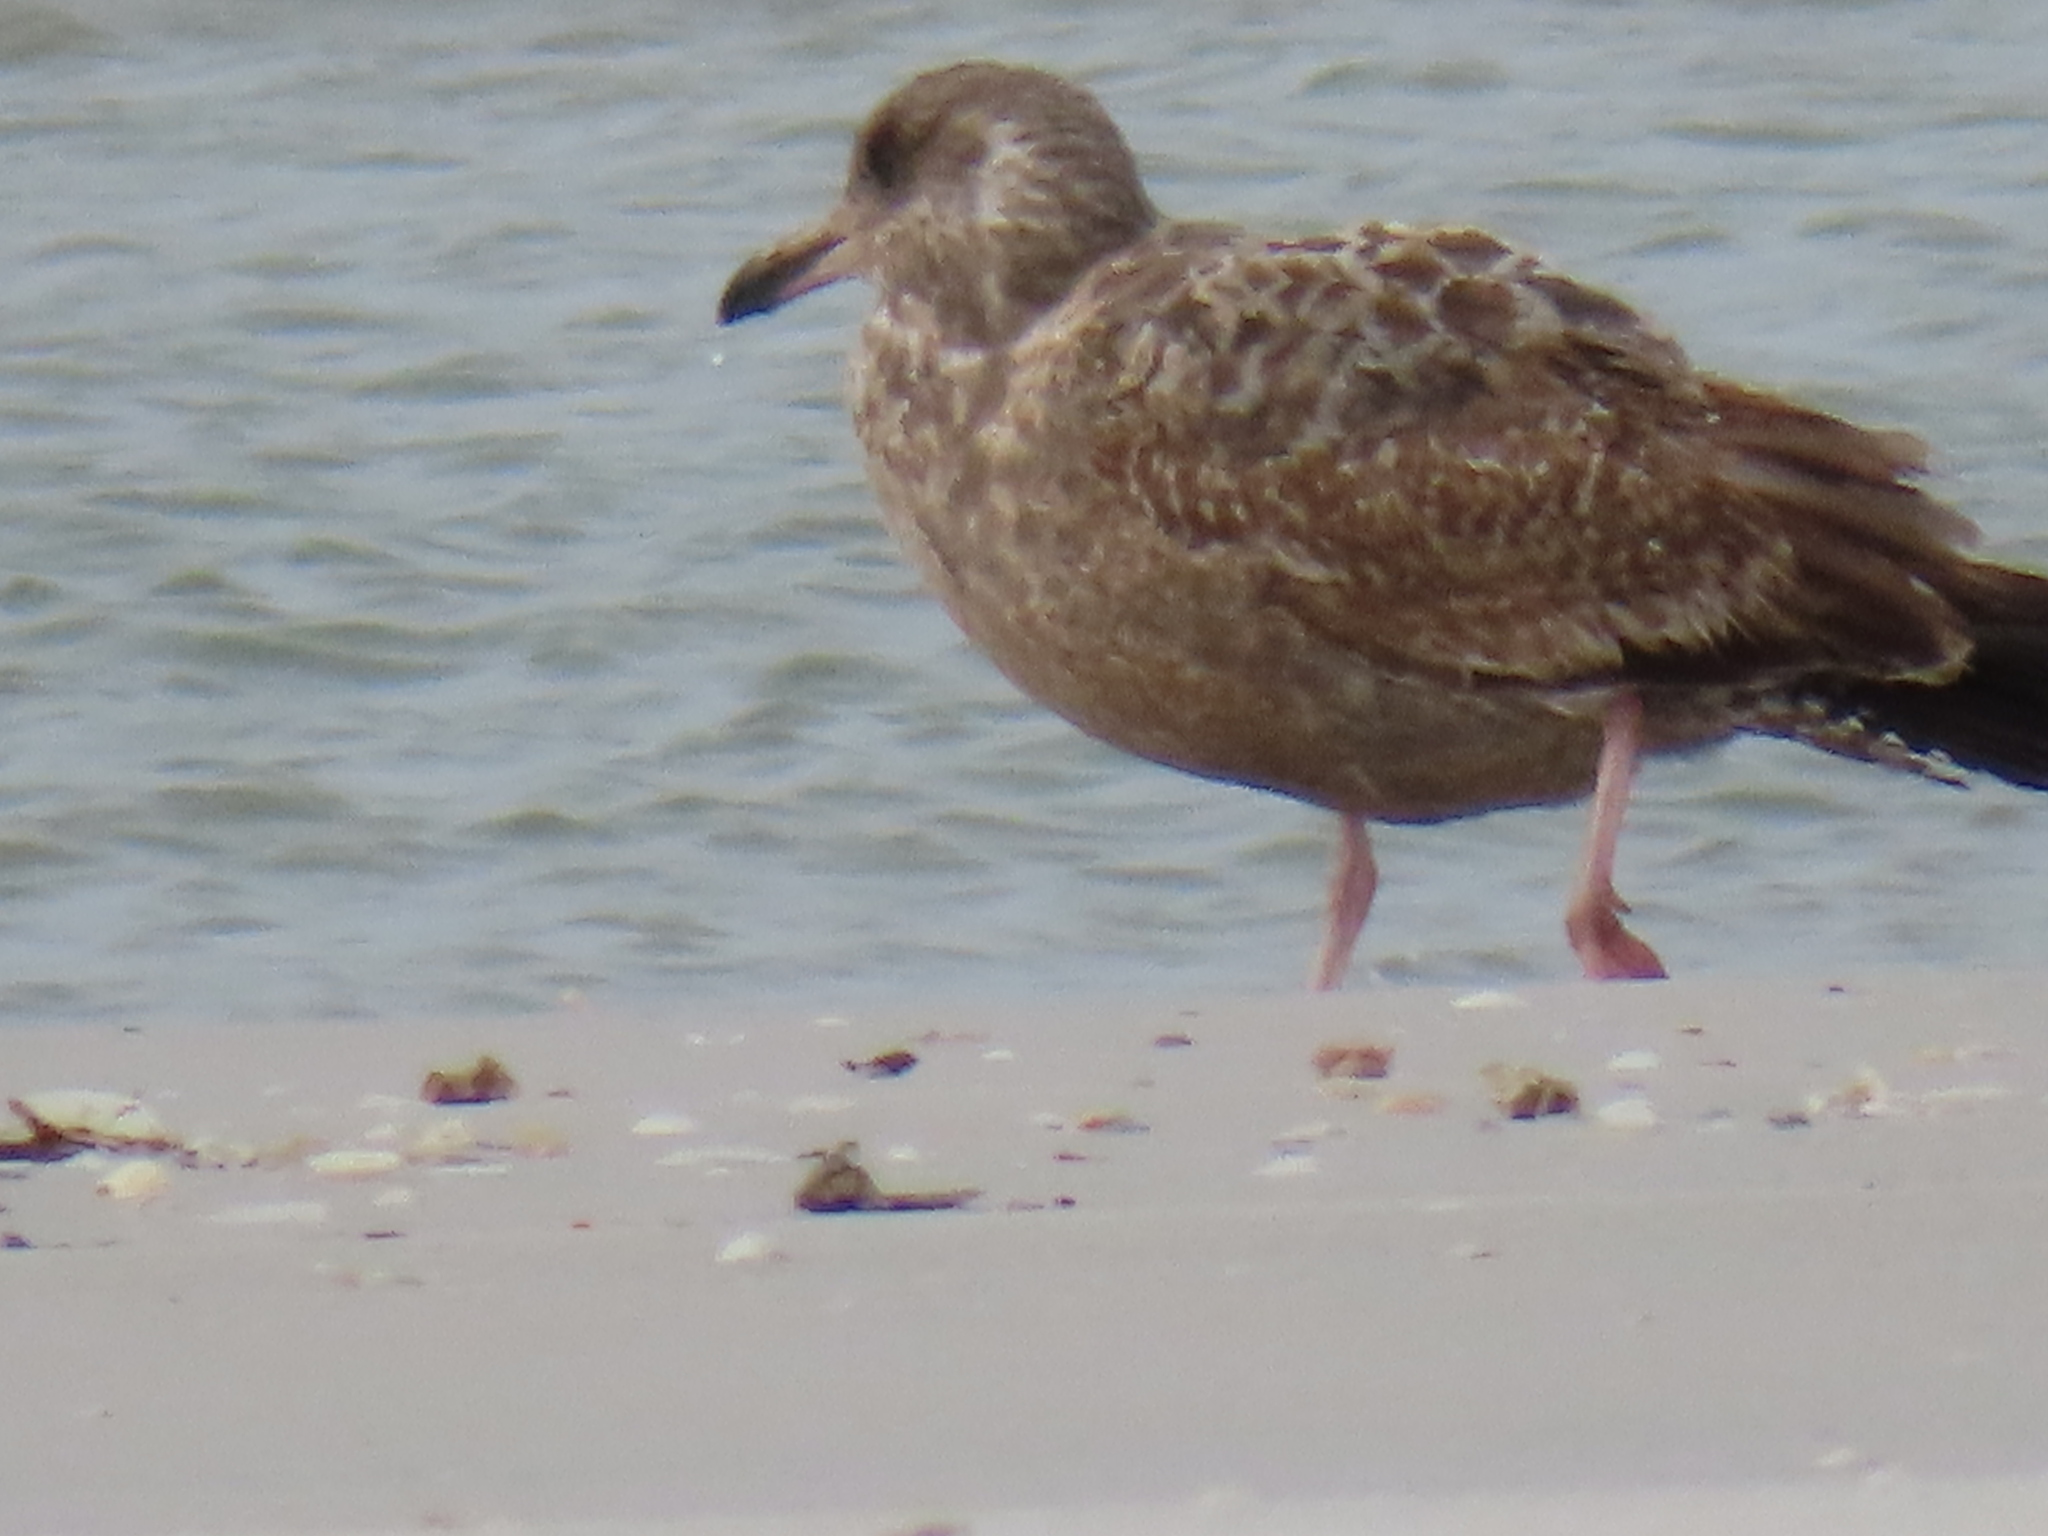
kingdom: Animalia
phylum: Chordata
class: Aves
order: Charadriiformes
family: Laridae
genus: Larus
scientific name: Larus argentatus
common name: Herring gull
